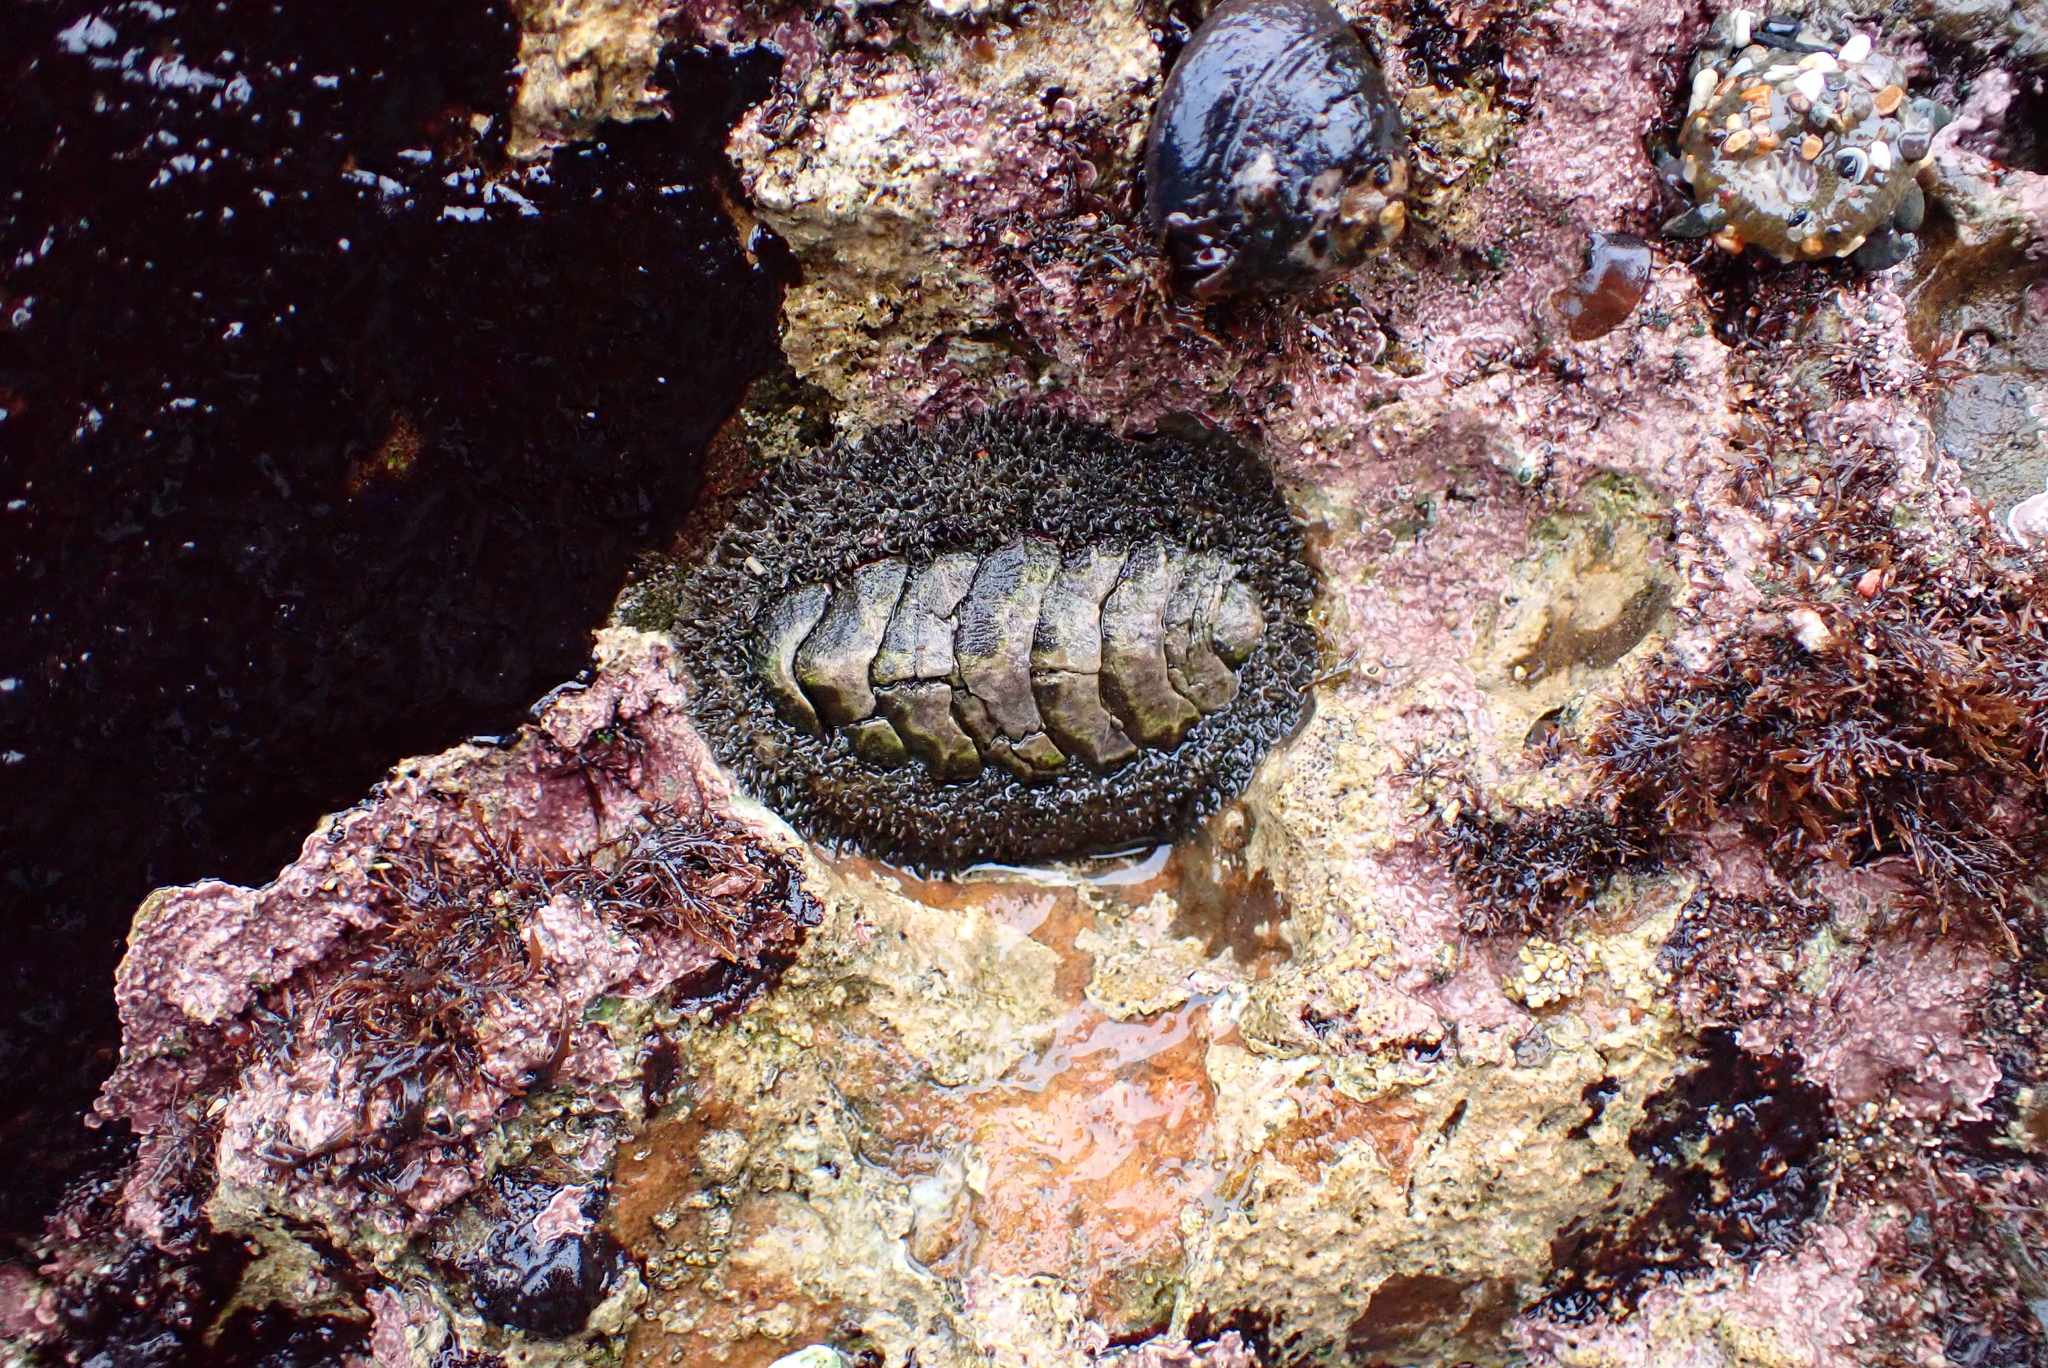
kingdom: Animalia
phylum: Mollusca
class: Polyplacophora
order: Chitonida
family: Mopaliidae
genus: Mopalia
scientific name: Mopalia muscosa
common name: Mossy chiton
